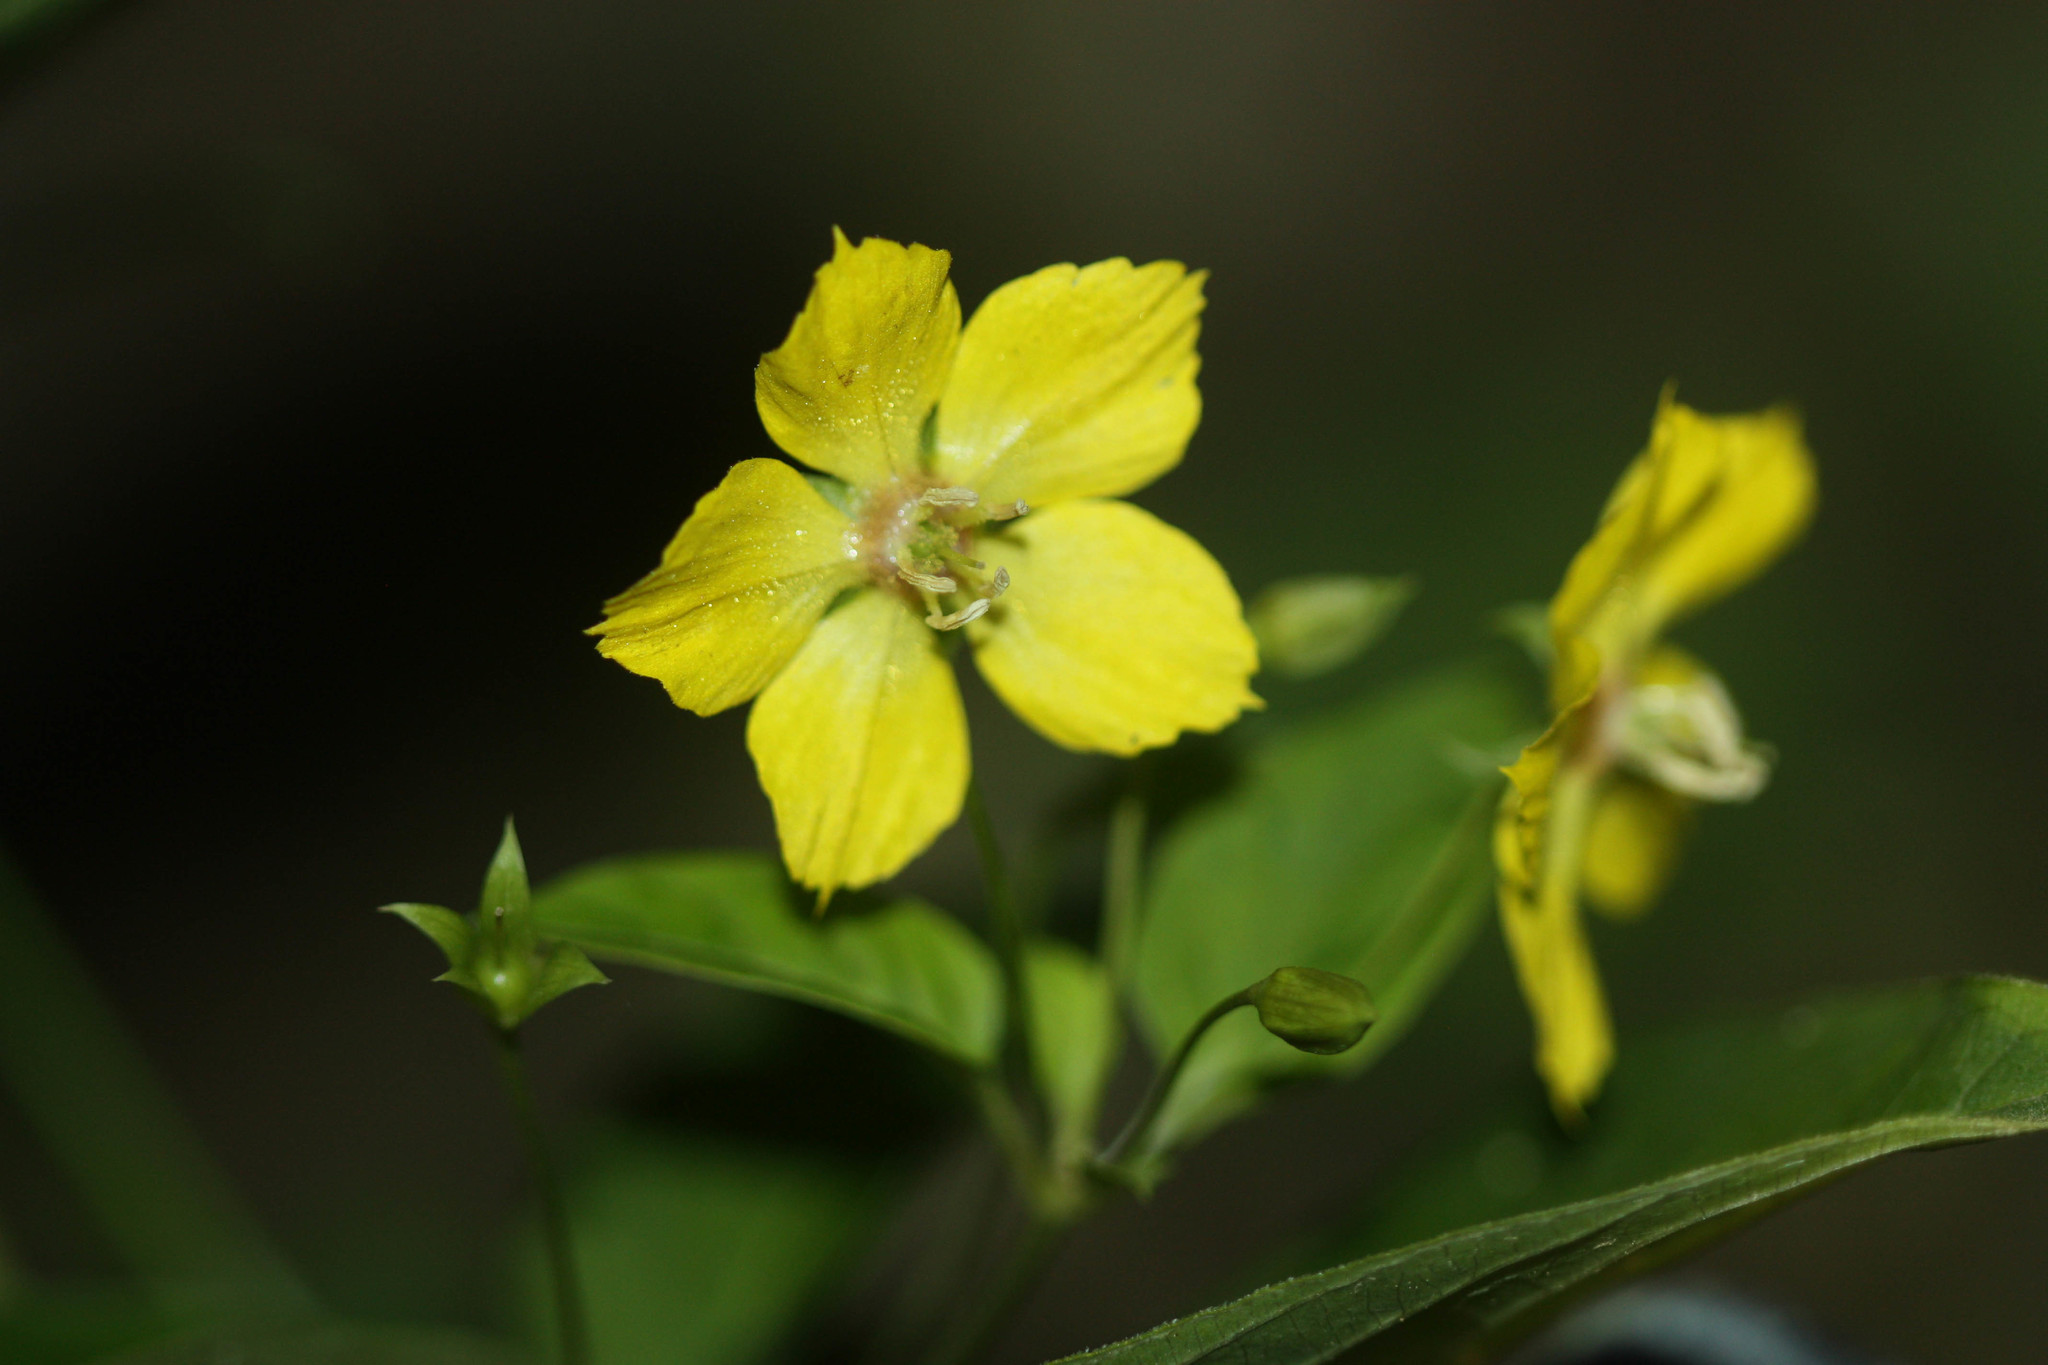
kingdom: Plantae
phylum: Tracheophyta
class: Magnoliopsida
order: Ericales
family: Primulaceae
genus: Lysimachia
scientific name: Lysimachia ciliata
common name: Fringed loosestrife
